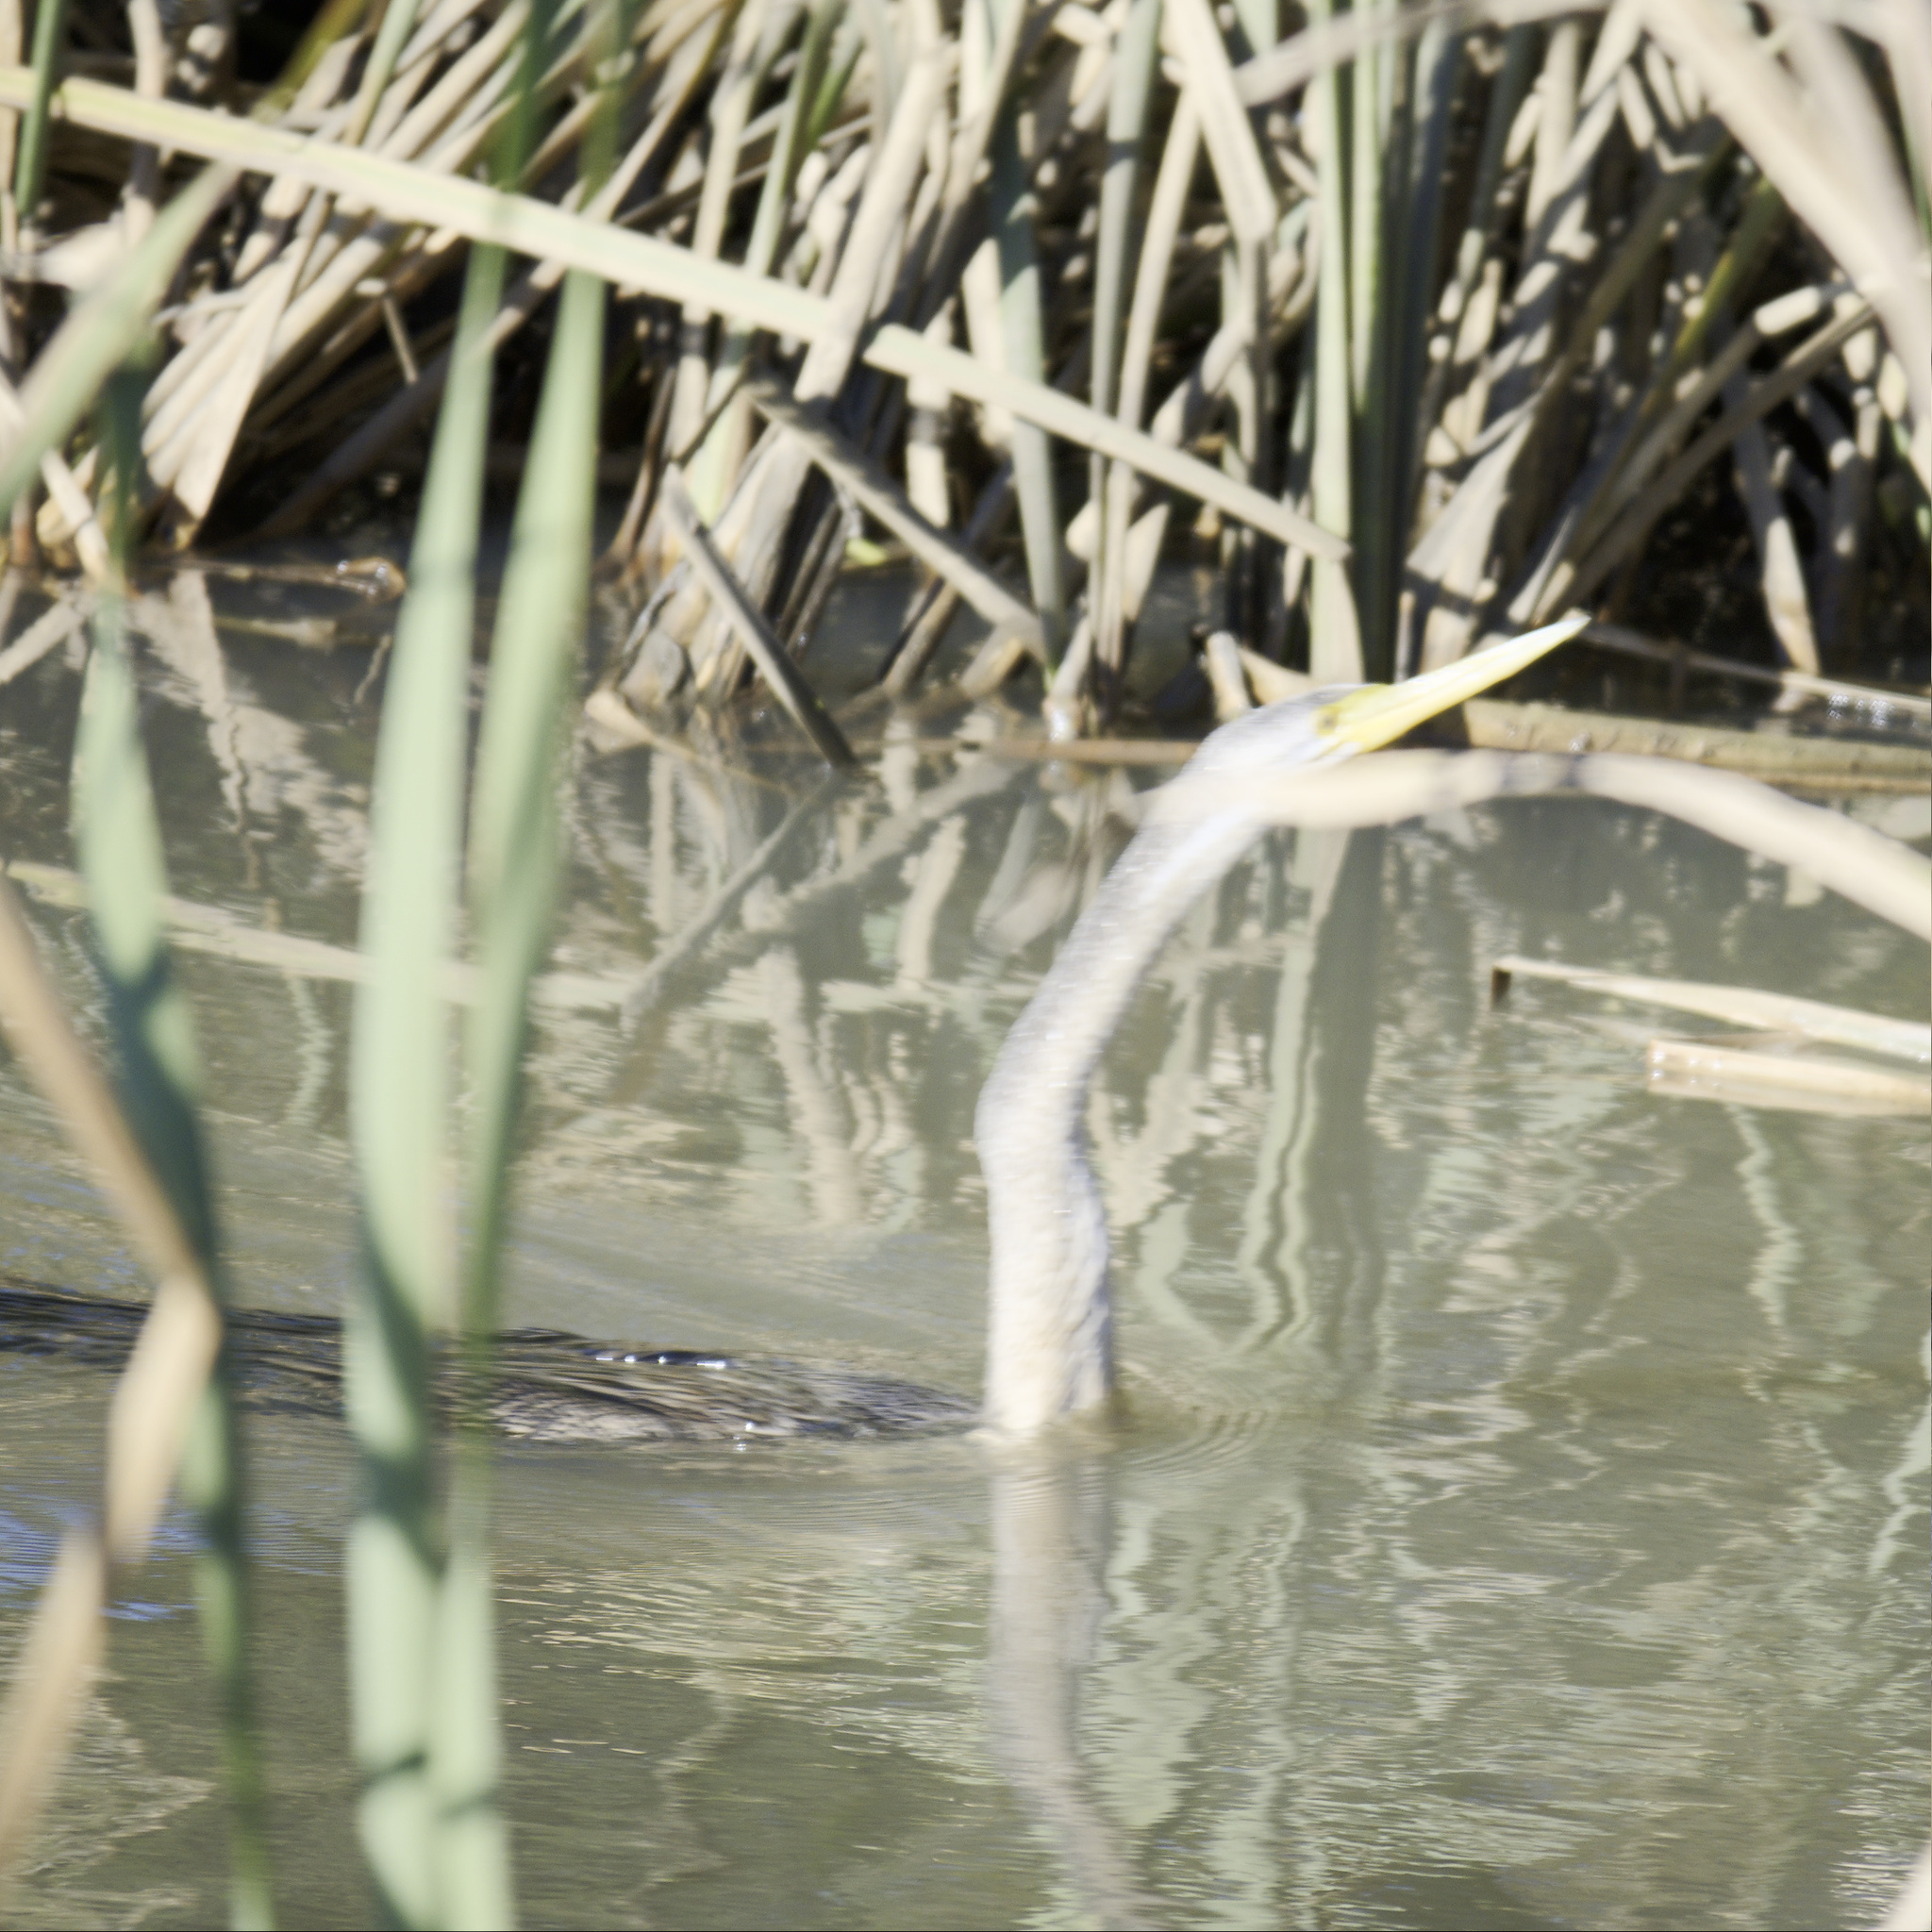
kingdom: Animalia
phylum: Chordata
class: Aves
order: Suliformes
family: Anhingidae
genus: Anhinga
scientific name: Anhinga novaehollandiae
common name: Australasian darter
